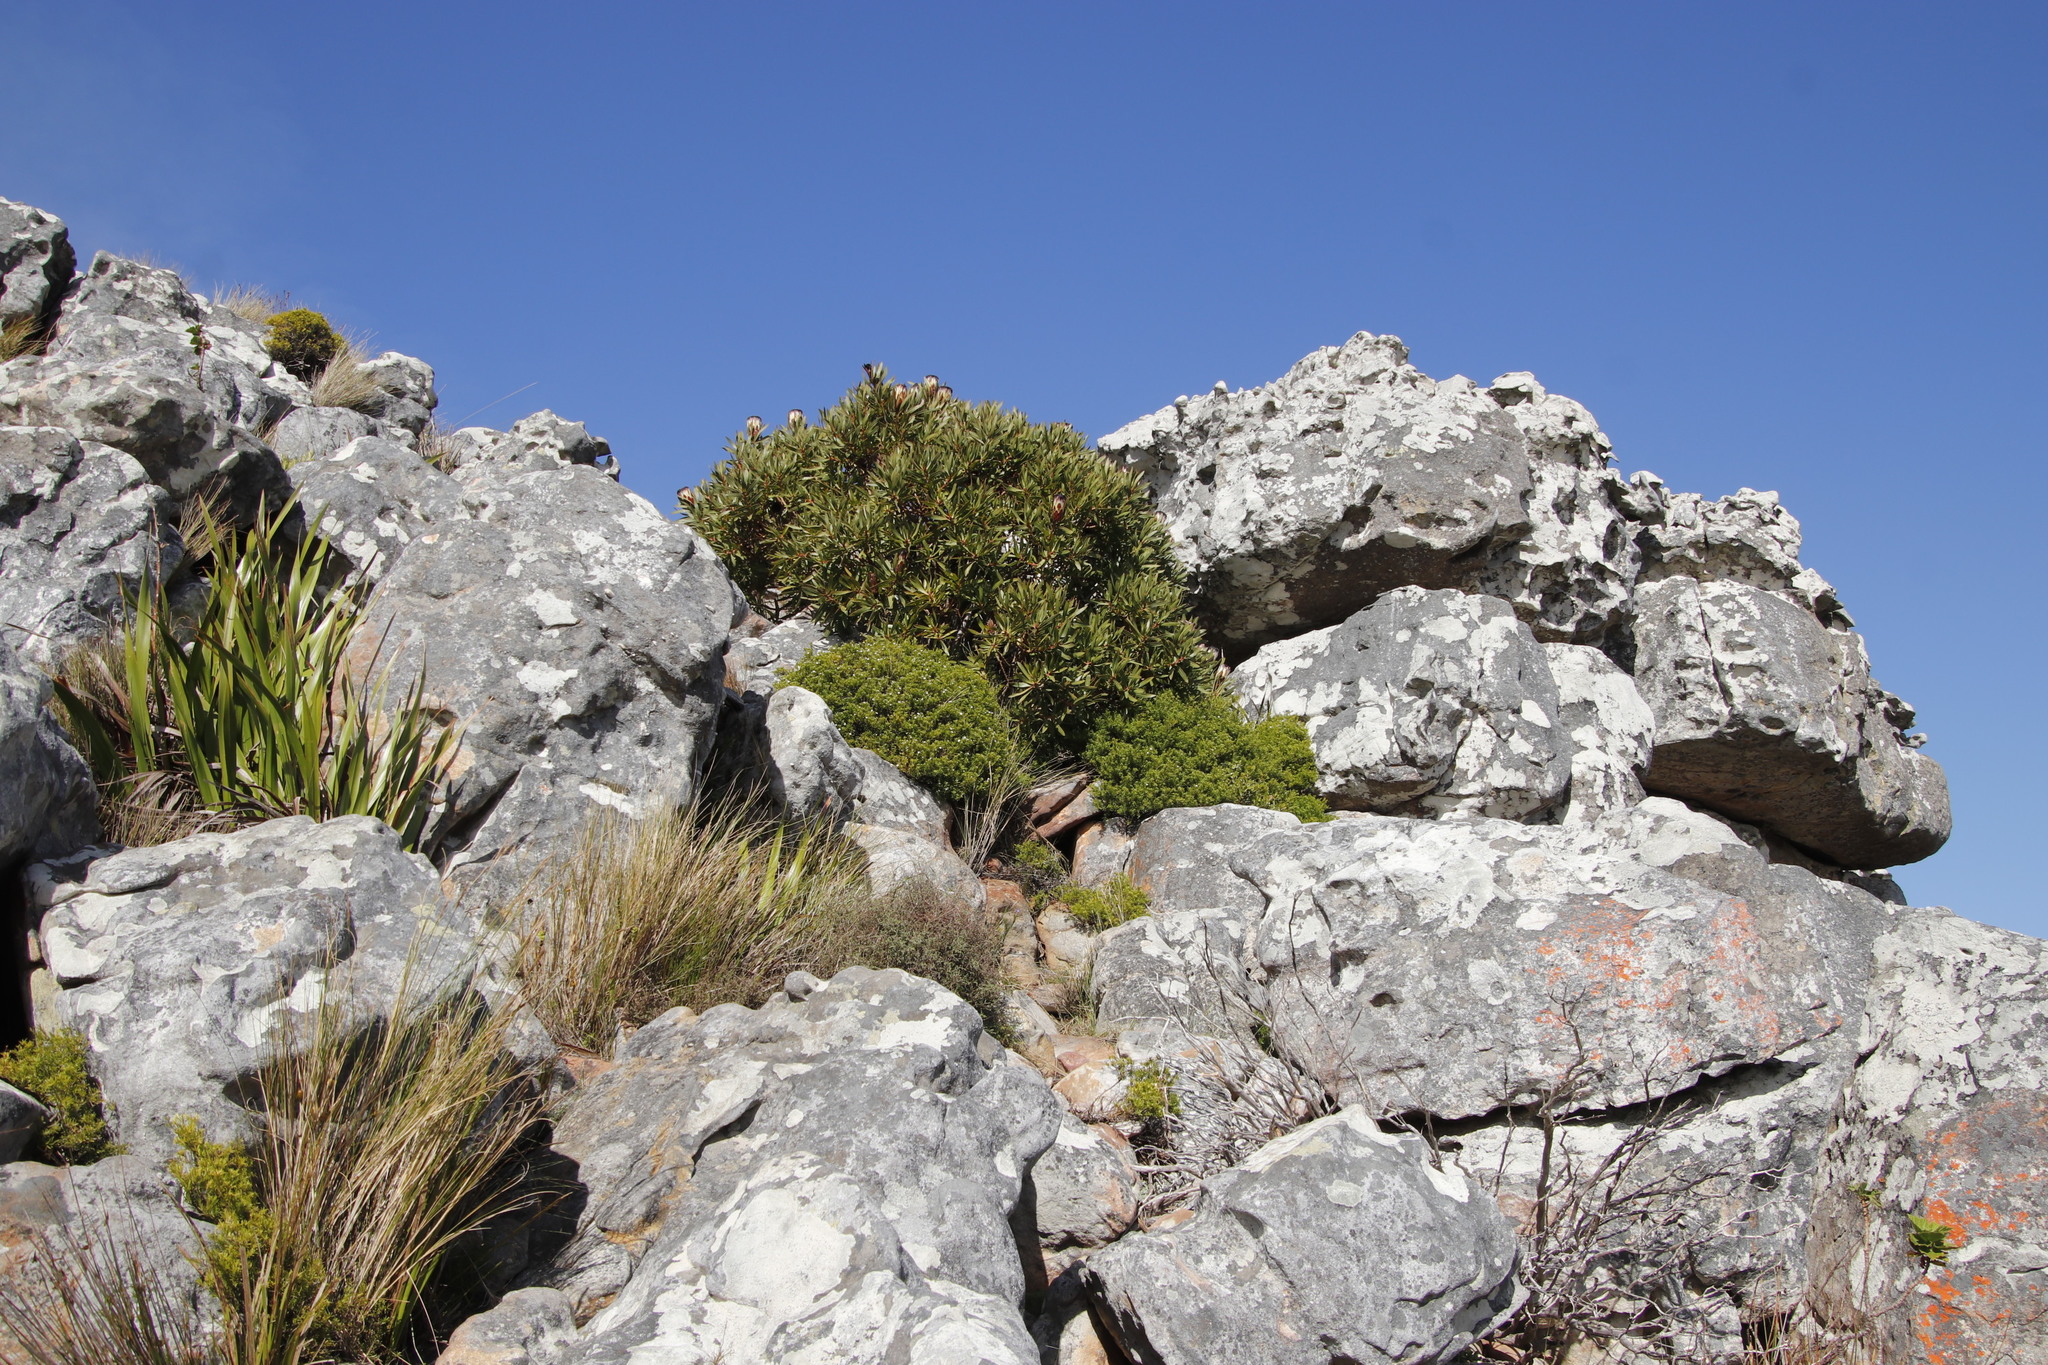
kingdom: Plantae
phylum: Tracheophyta
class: Magnoliopsida
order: Proteales
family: Proteaceae
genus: Protea
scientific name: Protea lepidocarpodendron
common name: Black-bearded protea
